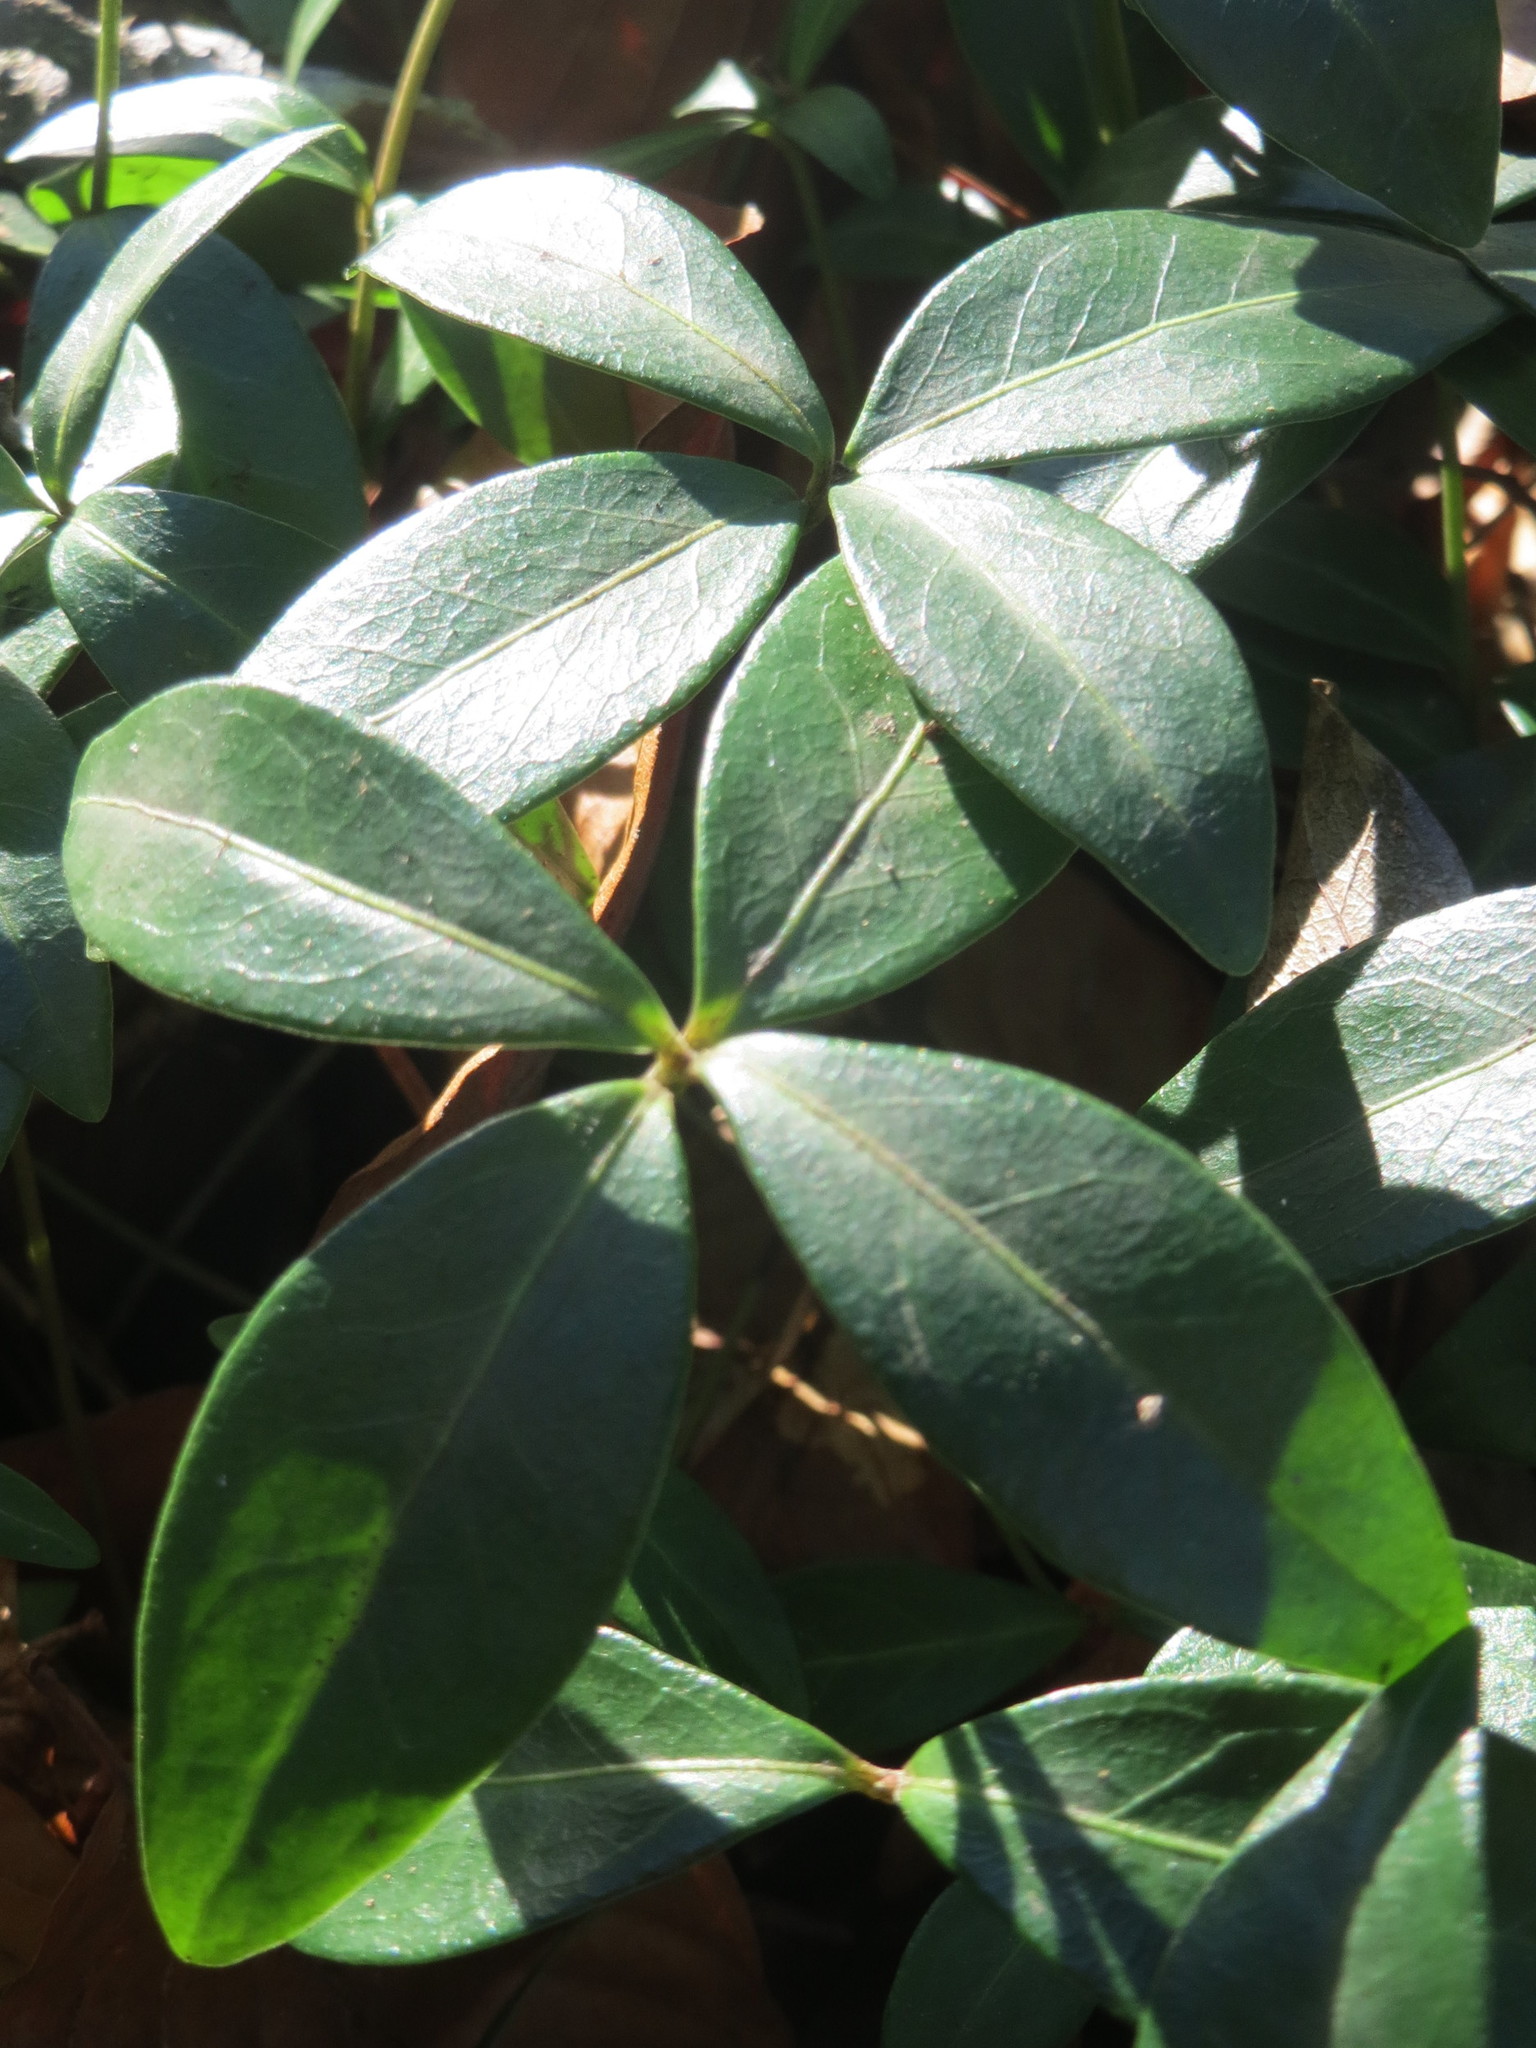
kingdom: Plantae
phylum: Tracheophyta
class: Magnoliopsida
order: Gentianales
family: Apocynaceae
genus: Vinca
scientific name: Vinca minor
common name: Lesser periwinkle
